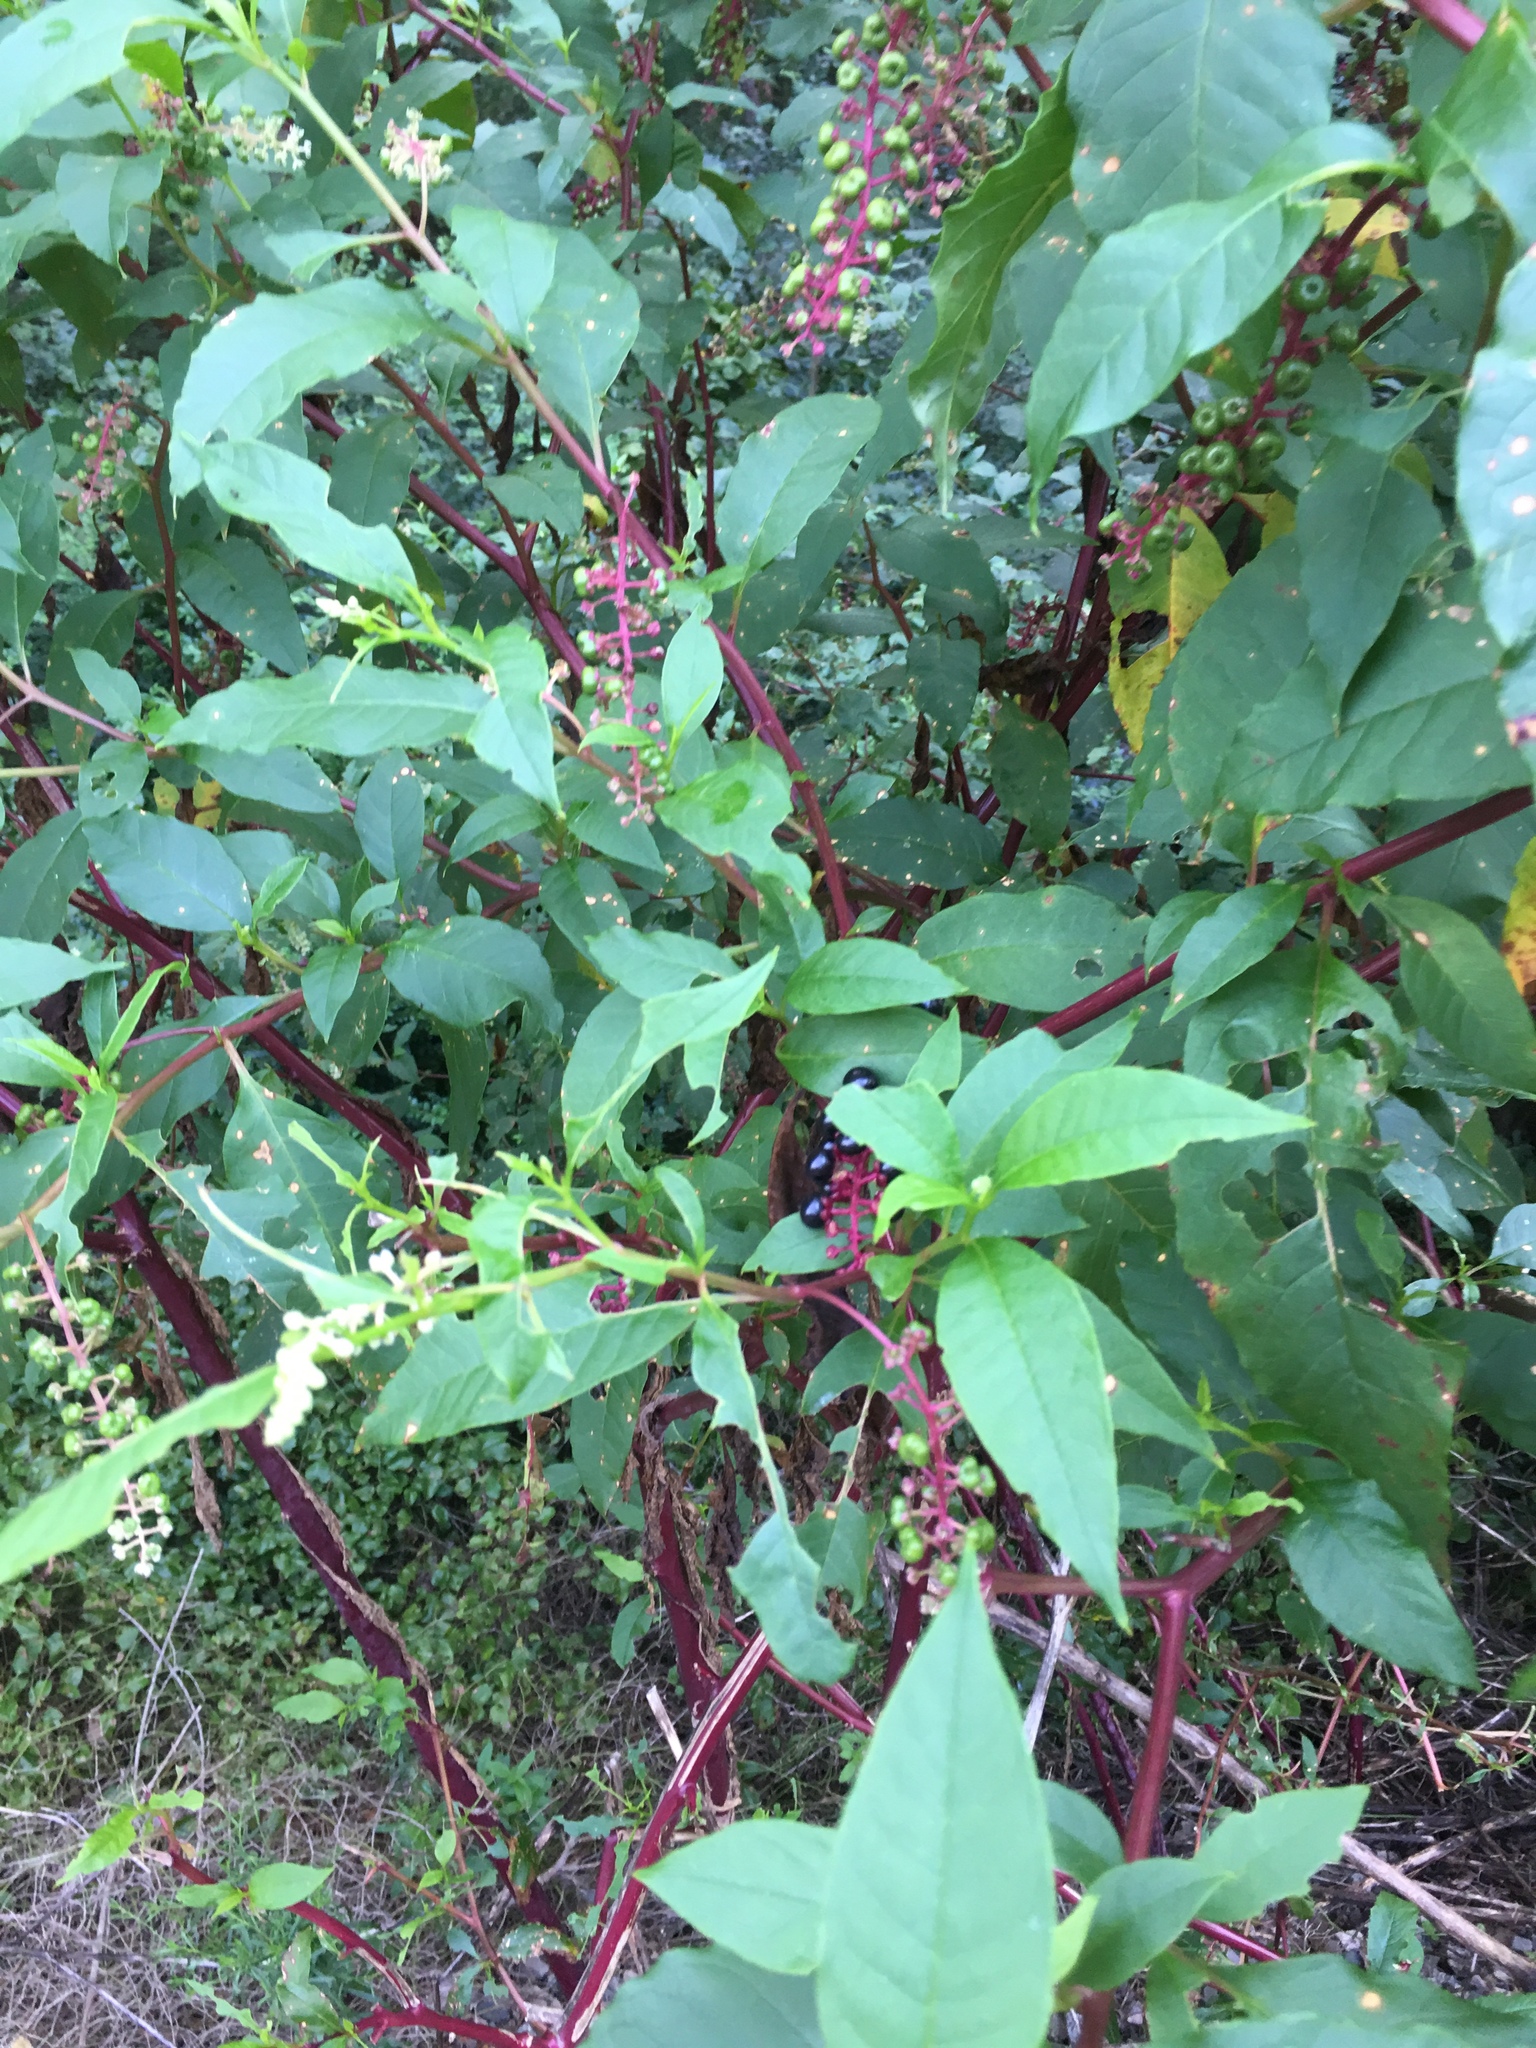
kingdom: Plantae
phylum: Tracheophyta
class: Magnoliopsida
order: Caryophyllales
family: Phytolaccaceae
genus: Phytolacca
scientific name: Phytolacca americana
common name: American pokeweed
